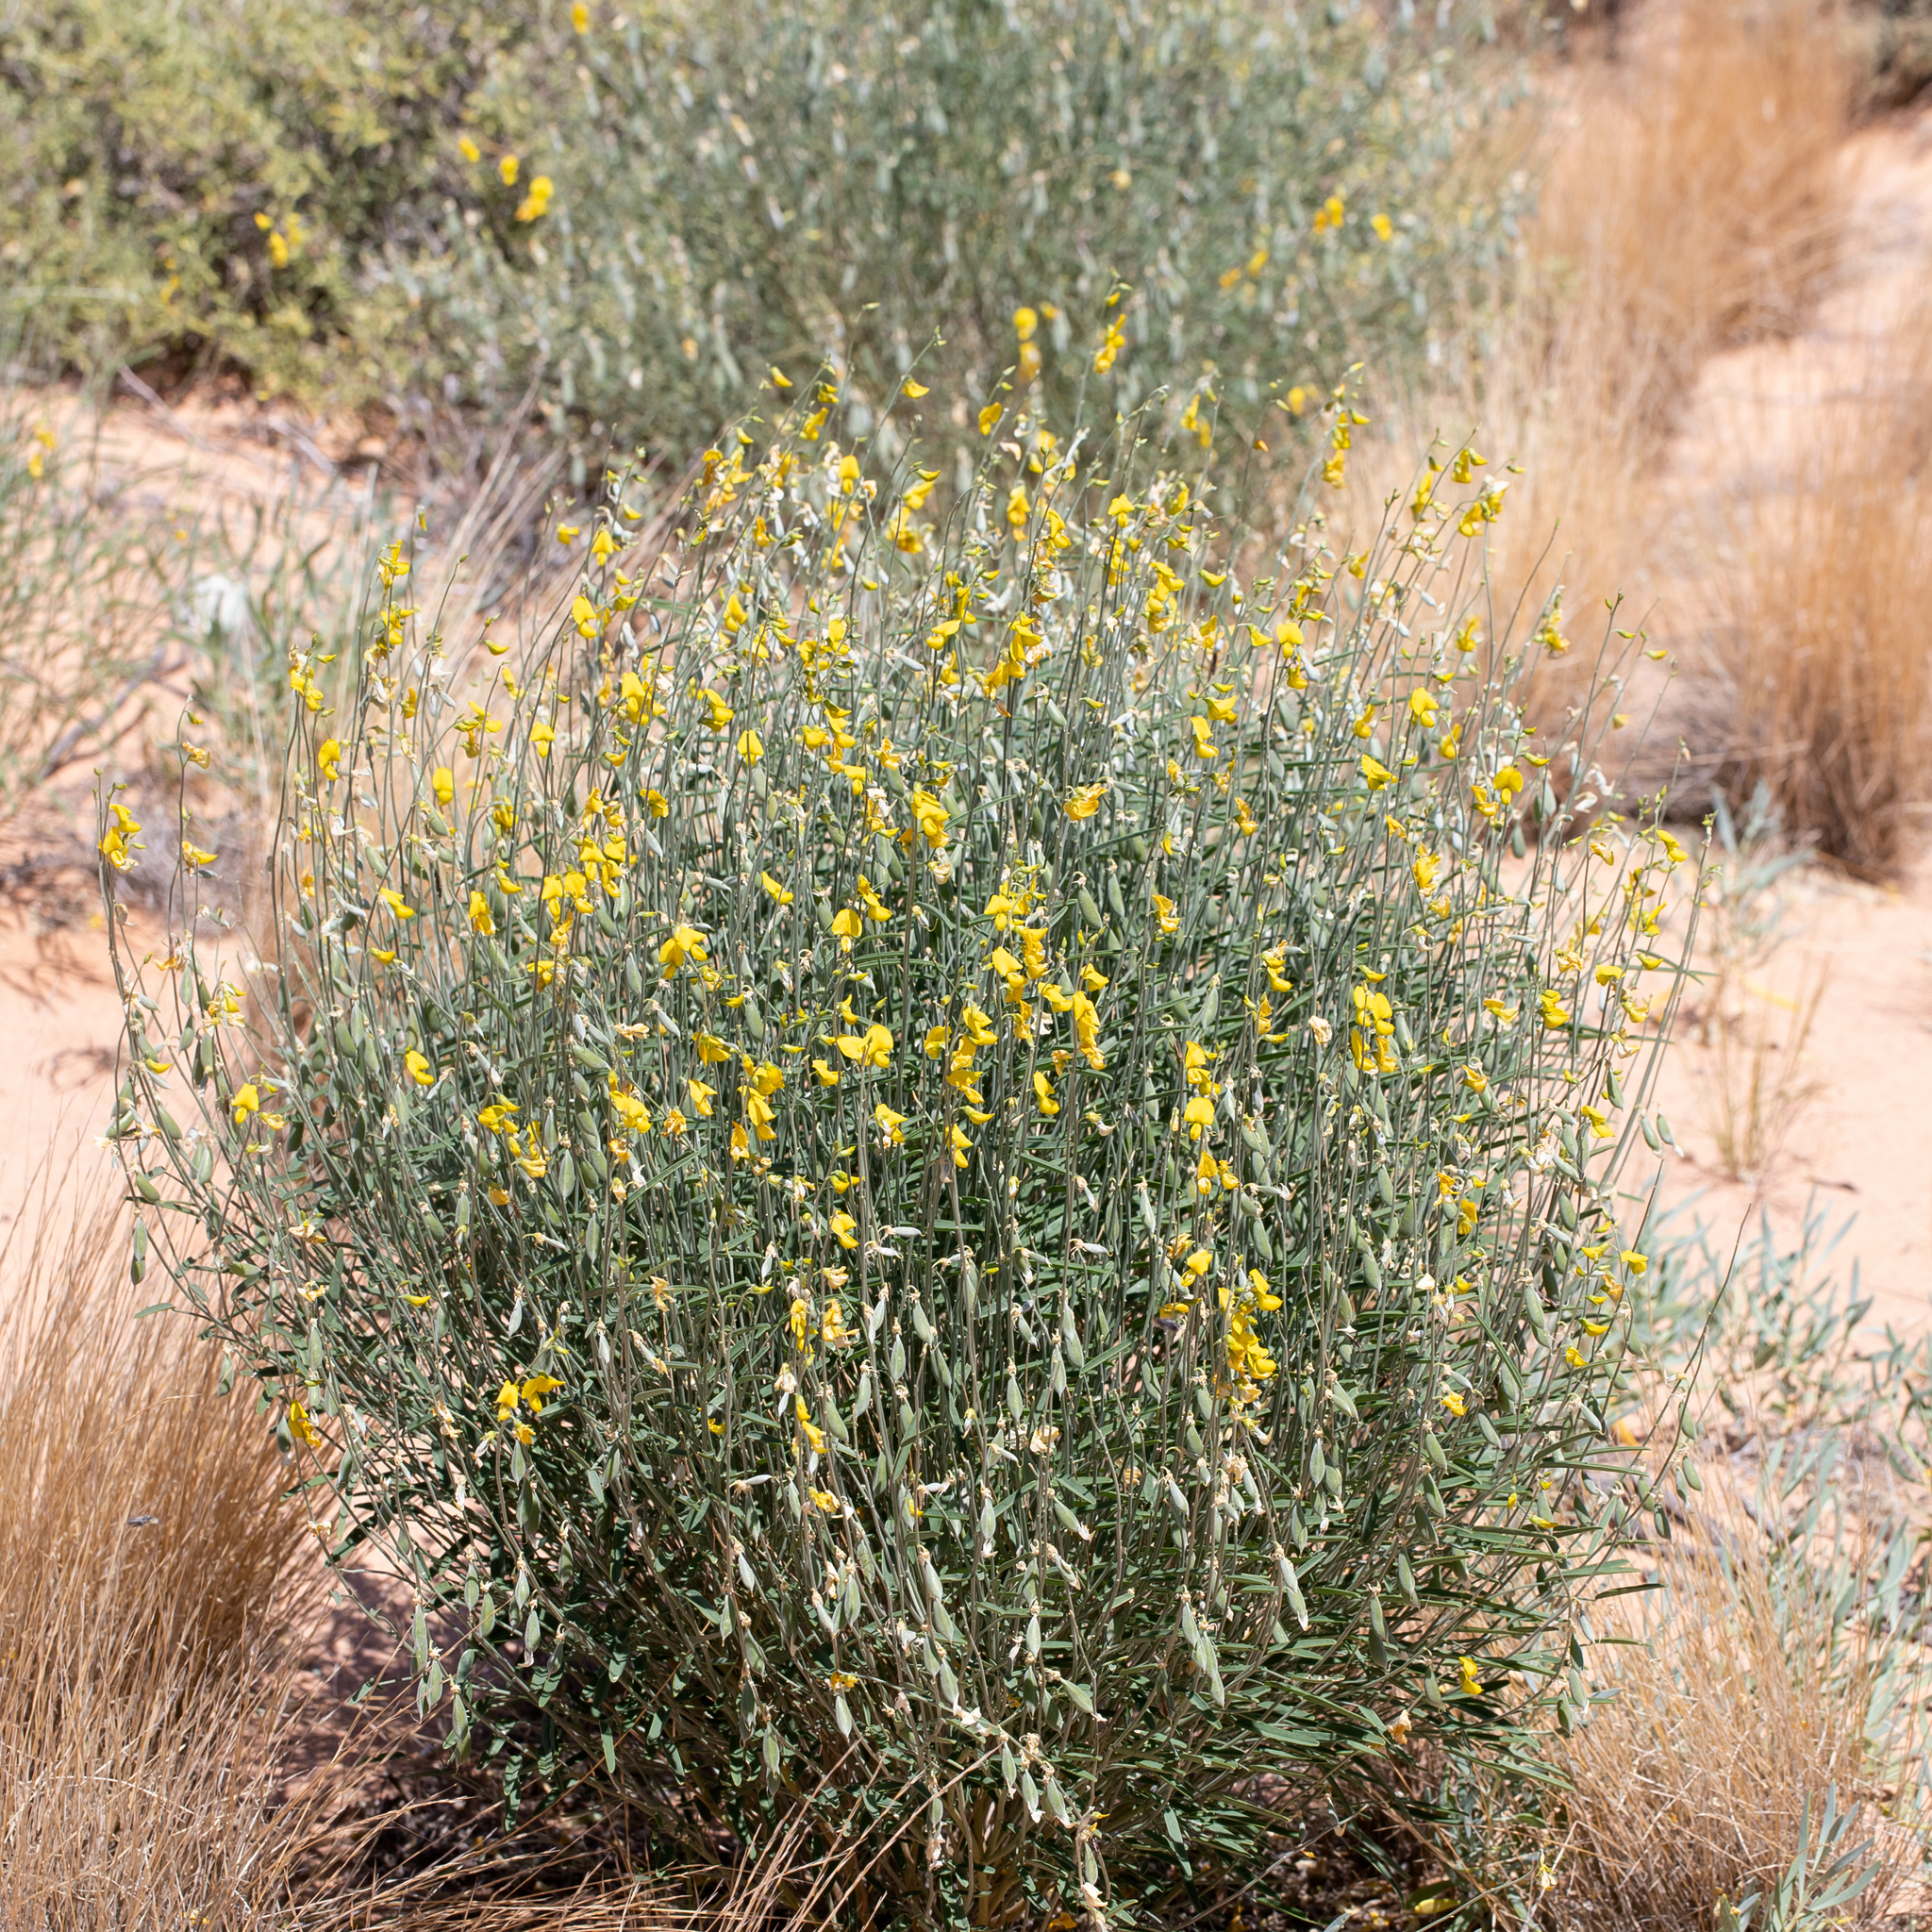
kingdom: Plantae
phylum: Tracheophyta
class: Magnoliopsida
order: Fabales
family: Fabaceae
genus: Crotalaria
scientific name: Crotalaria eremaea
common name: Bluebush pea
